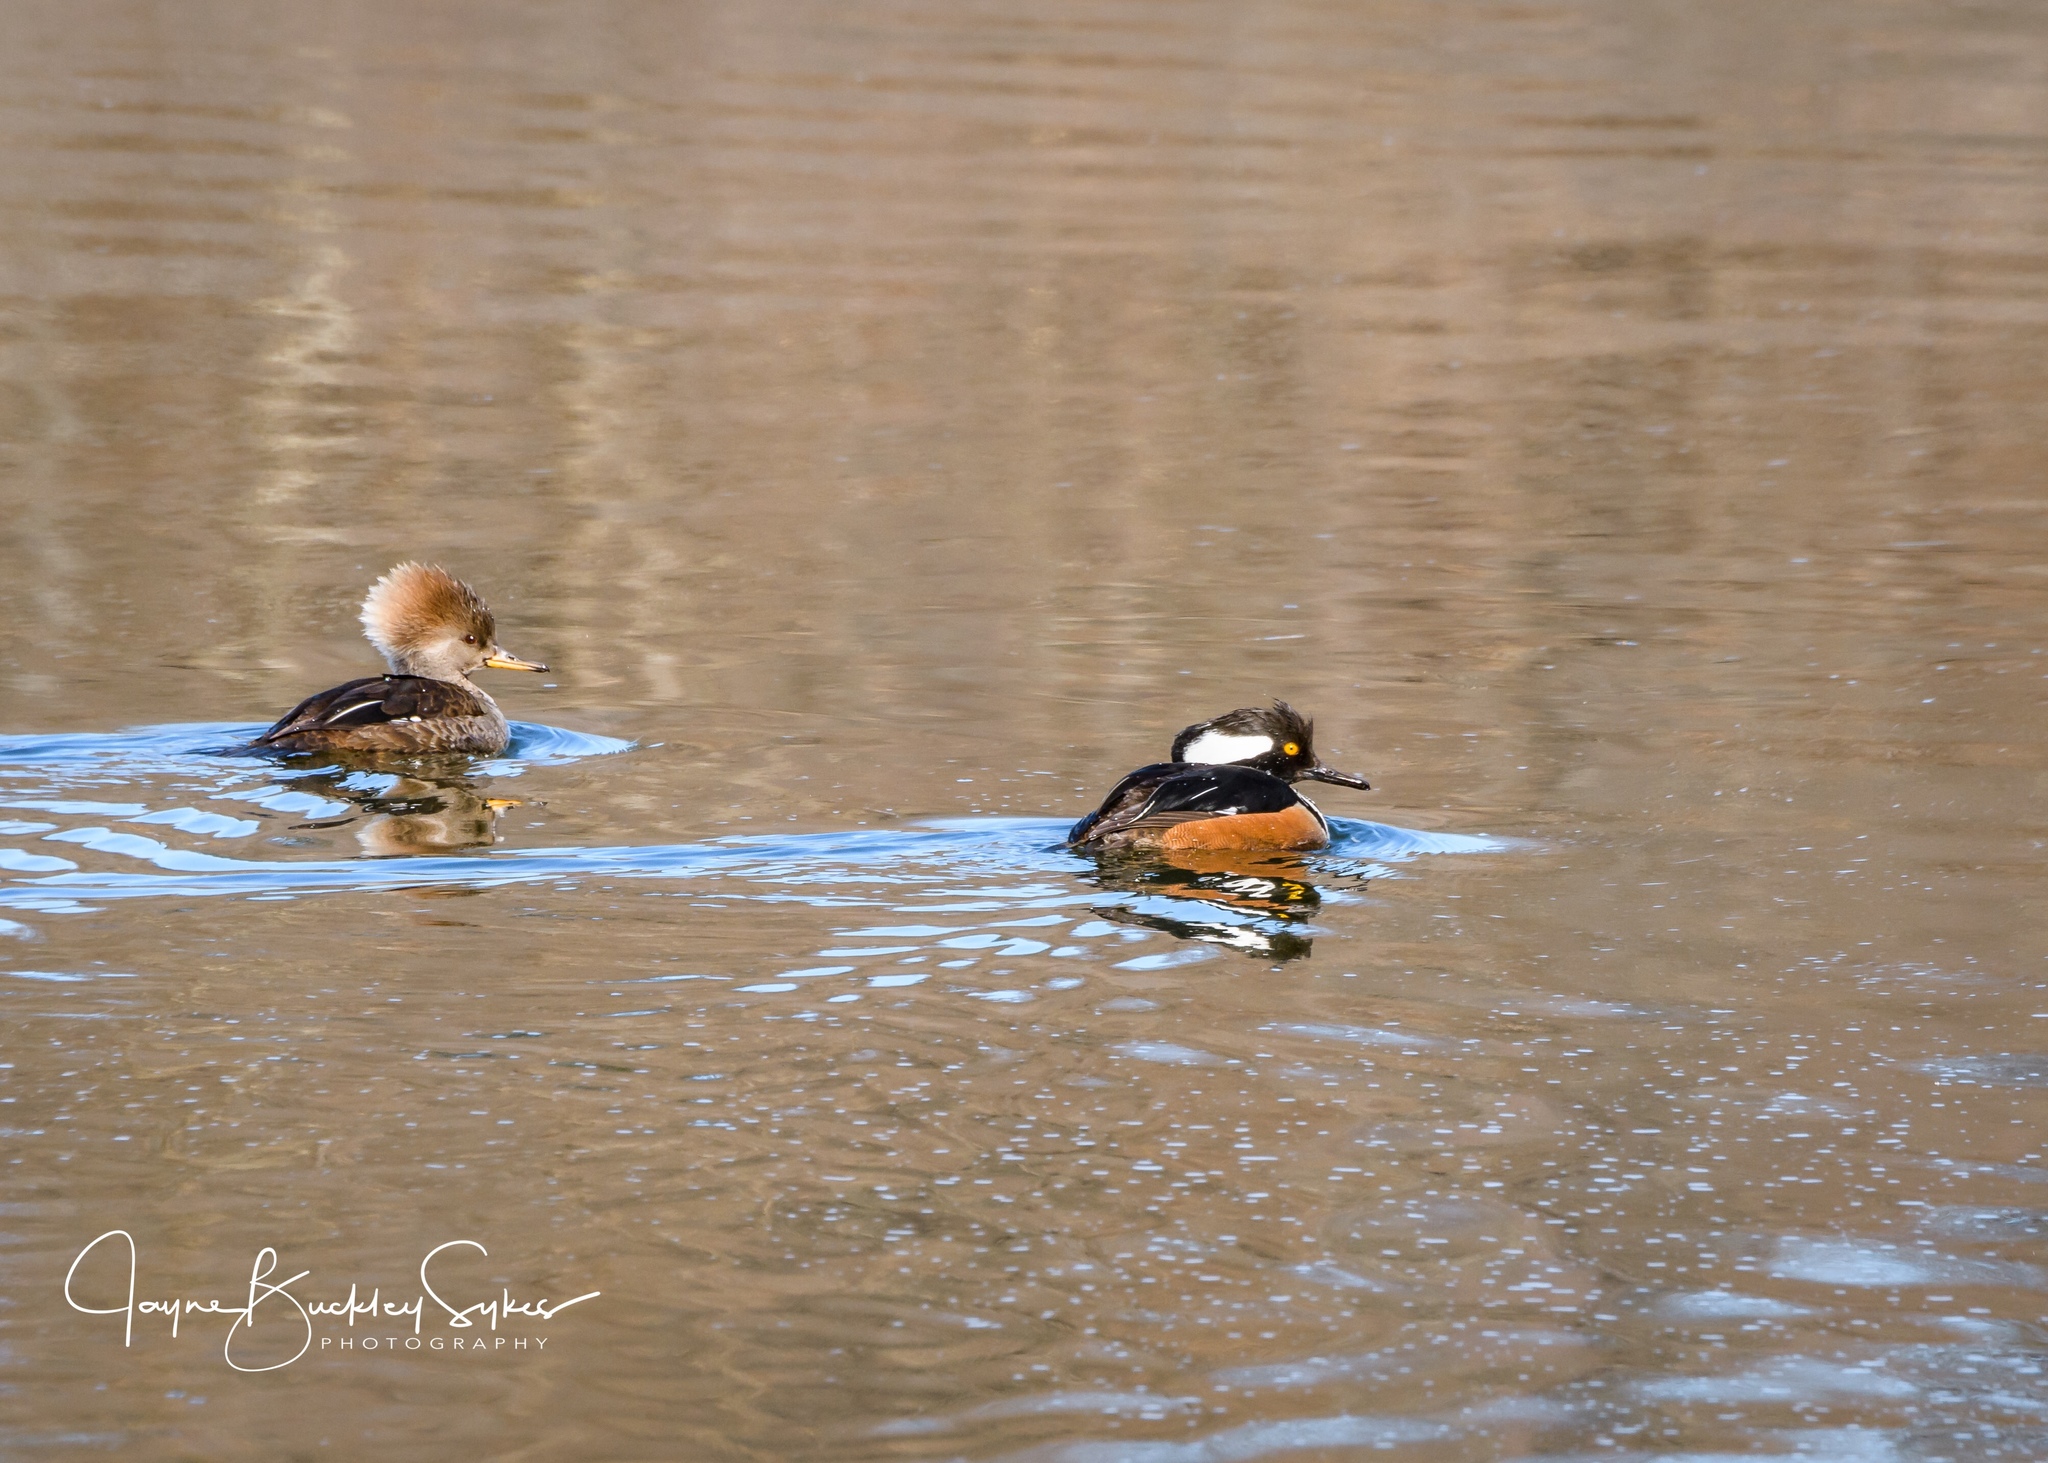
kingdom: Animalia
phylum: Chordata
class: Aves
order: Anseriformes
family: Anatidae
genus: Lophodytes
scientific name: Lophodytes cucullatus
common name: Hooded merganser
